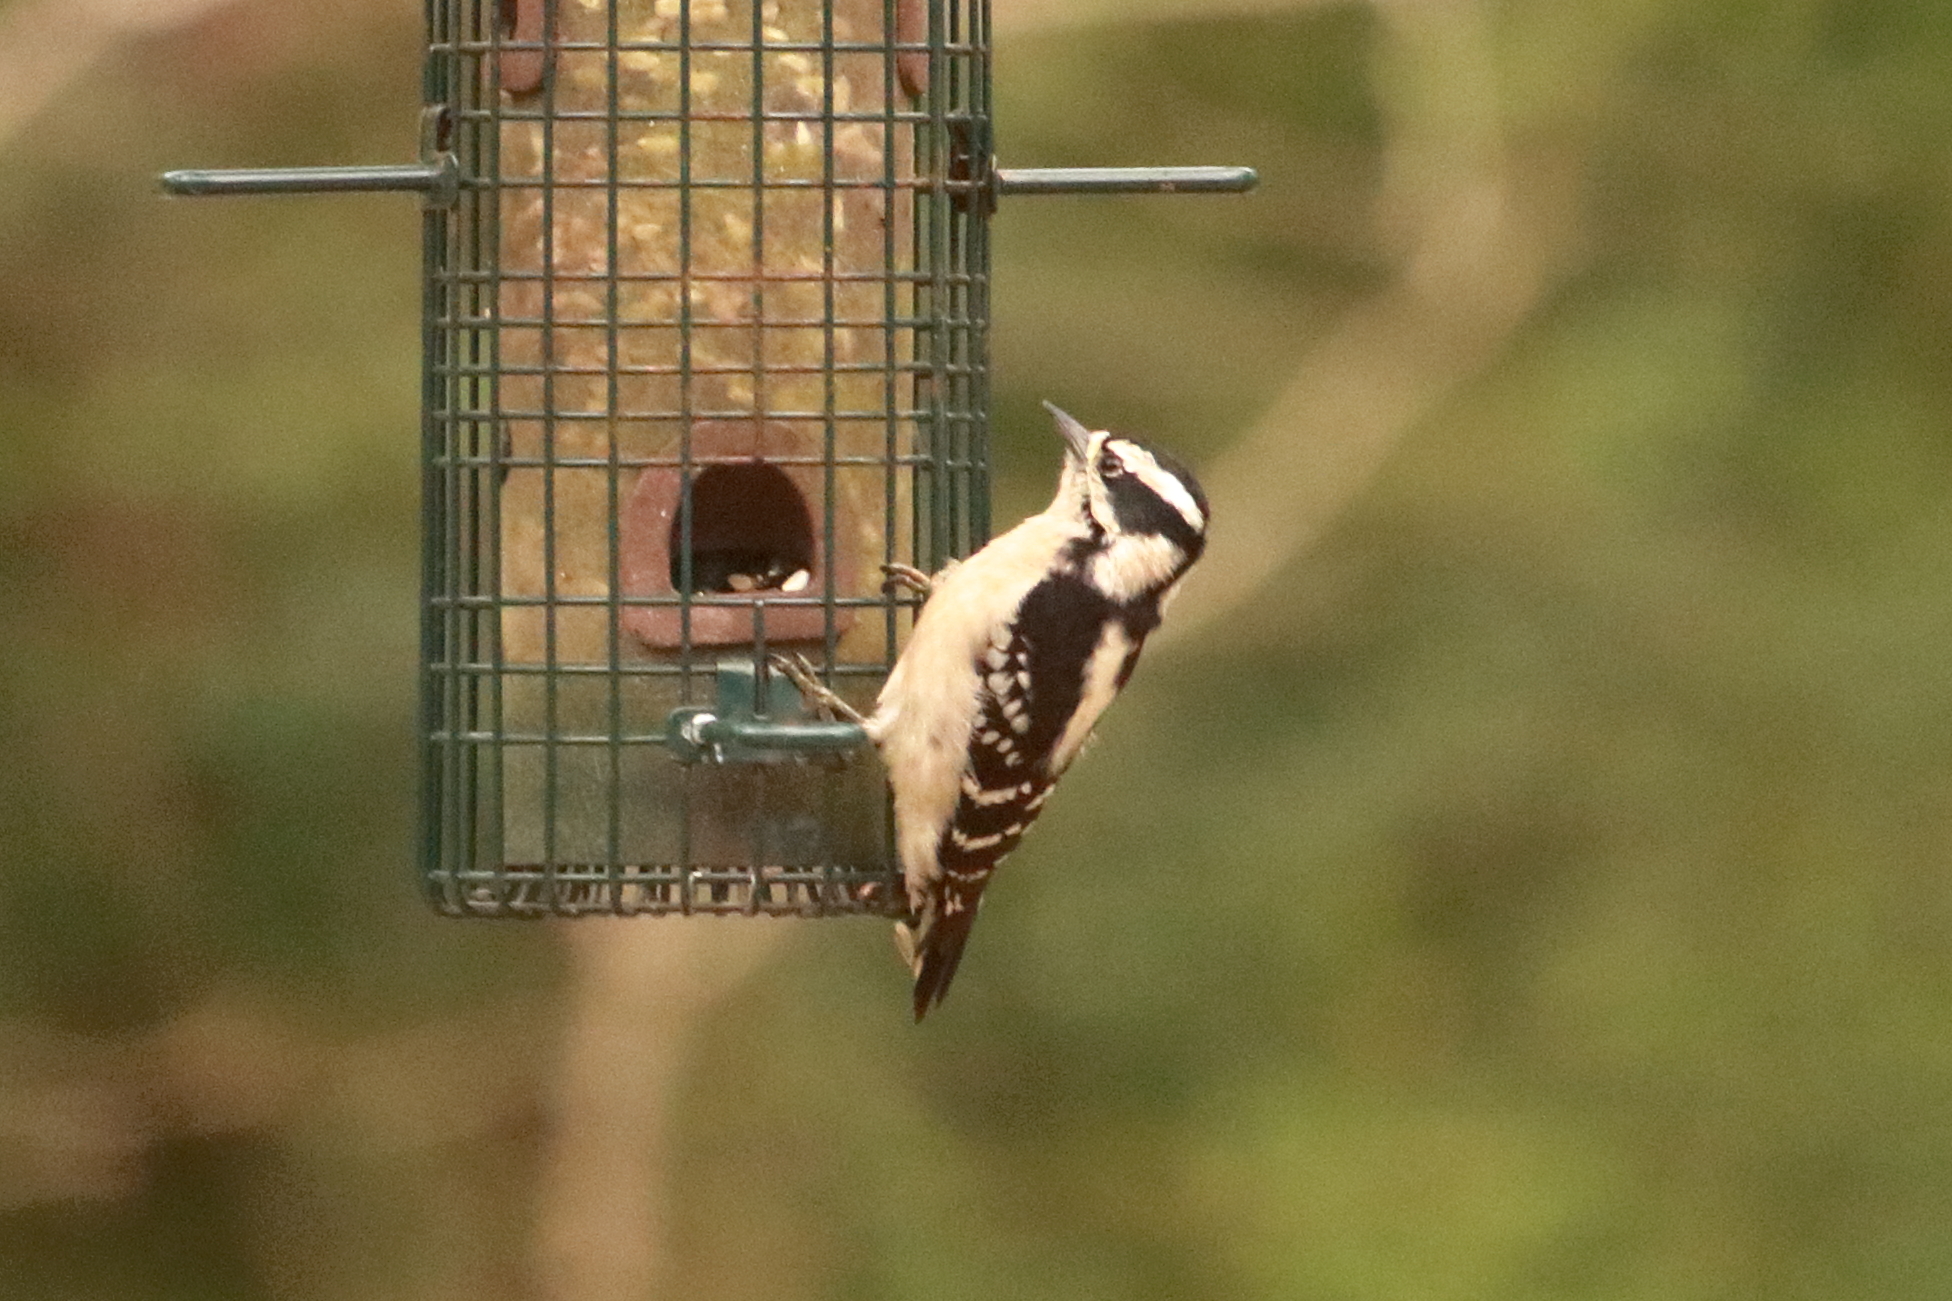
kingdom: Animalia
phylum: Chordata
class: Aves
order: Piciformes
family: Picidae
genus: Dryobates
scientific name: Dryobates pubescens
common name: Downy woodpecker
